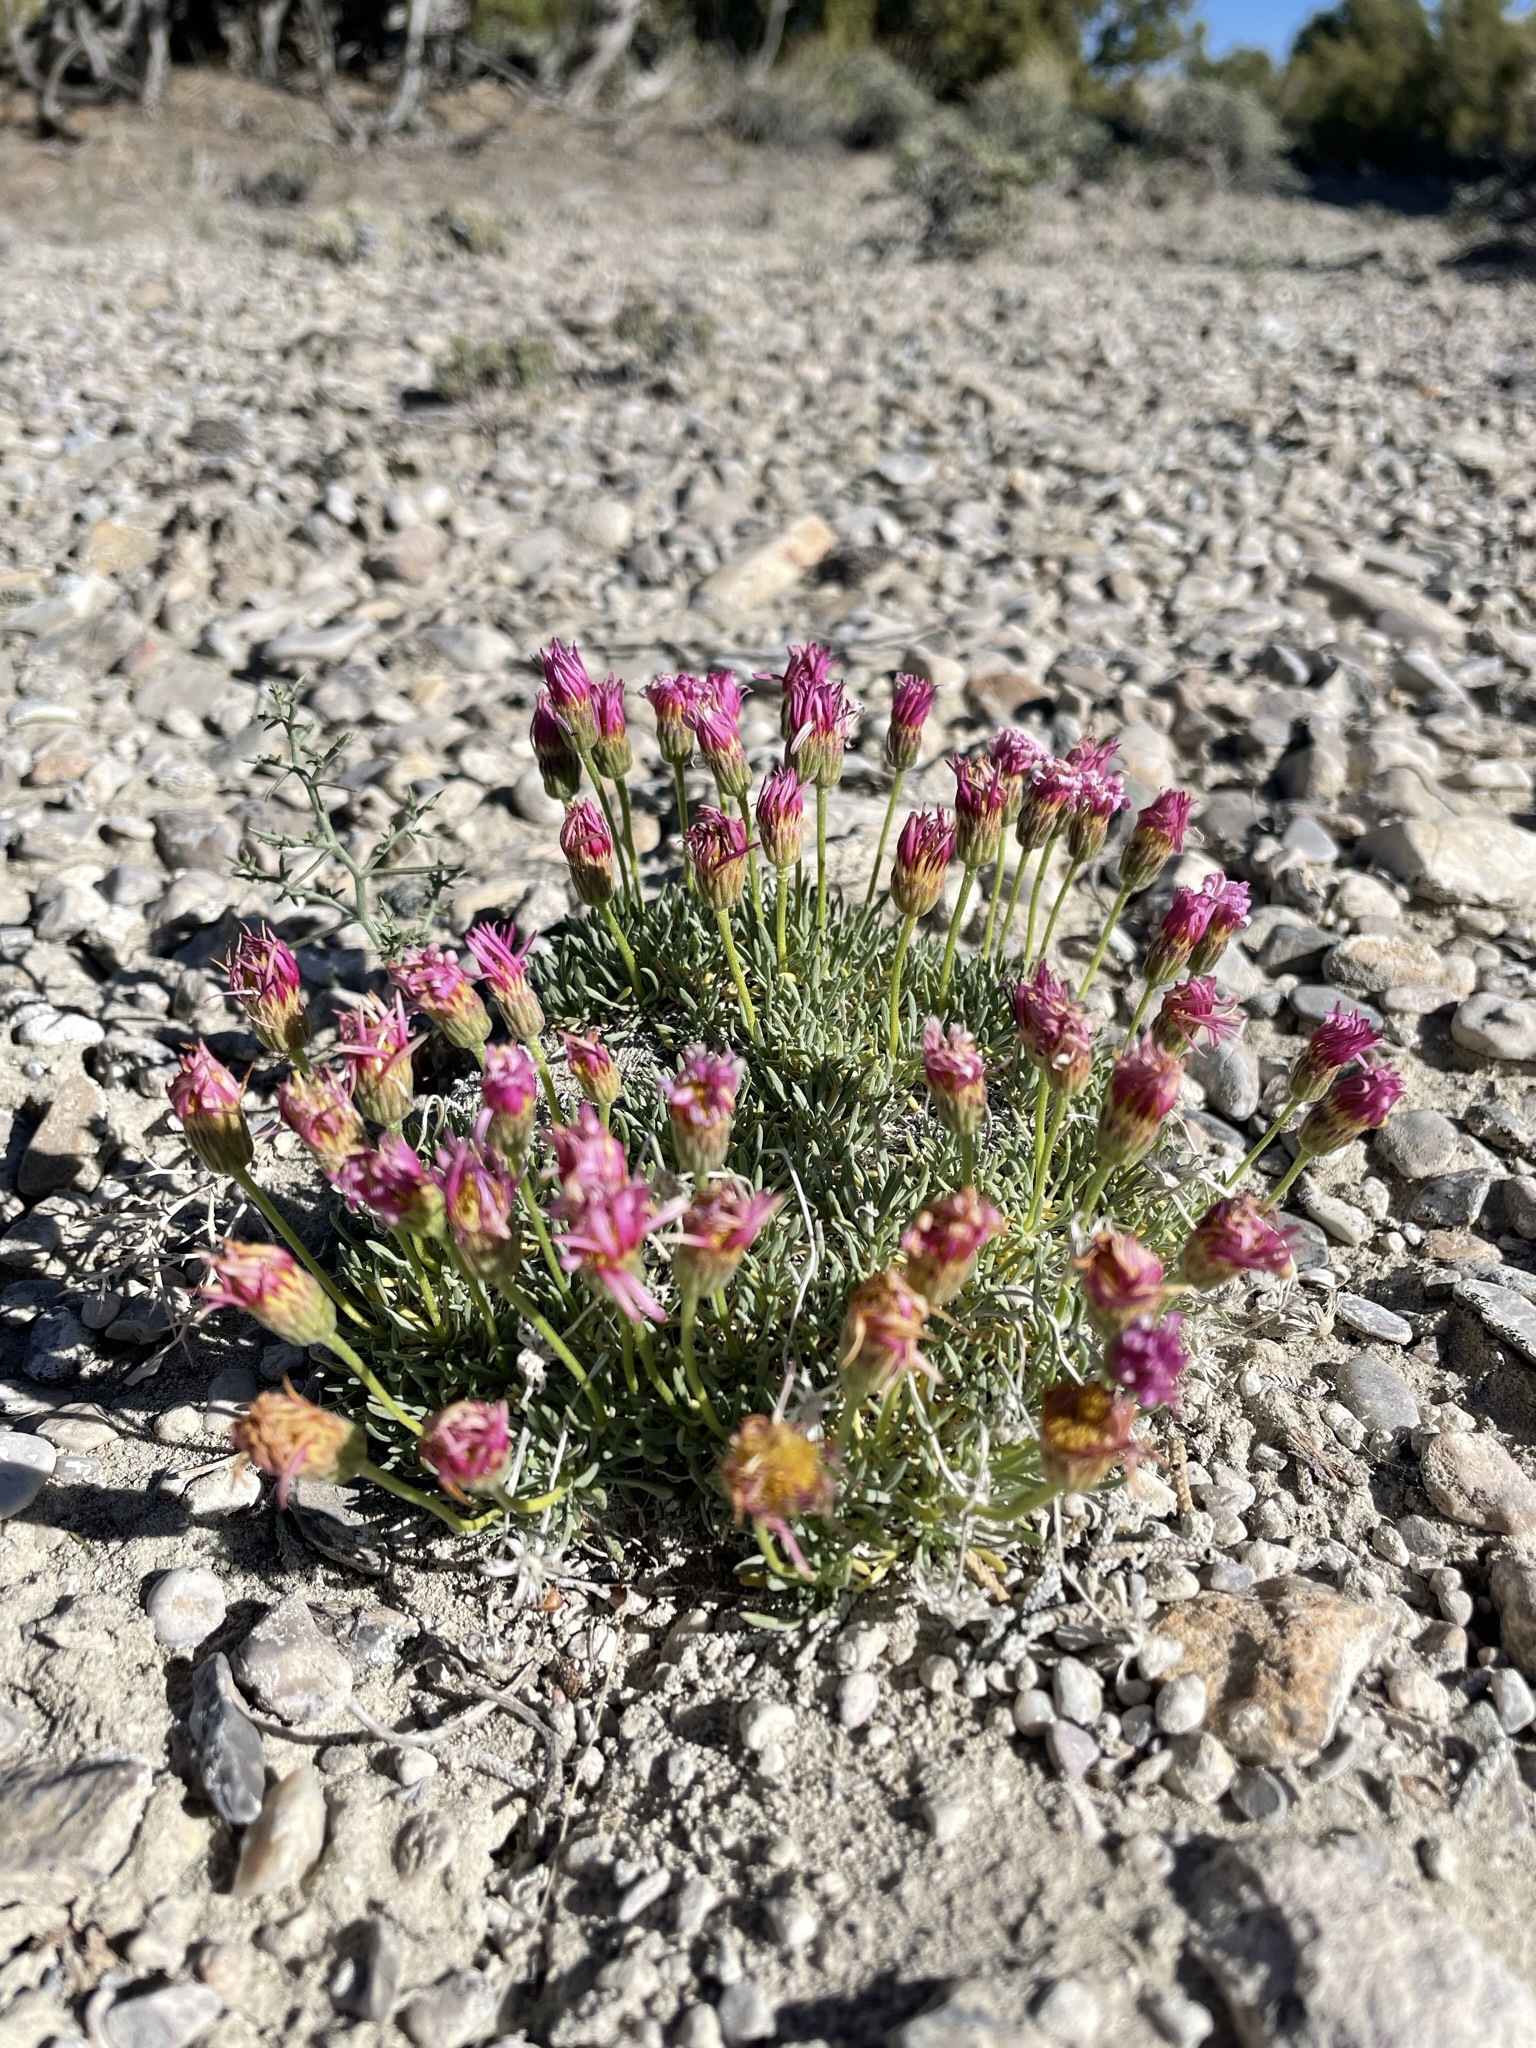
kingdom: Plantae
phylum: Tracheophyta
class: Magnoliopsida
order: Asterales
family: Asteraceae
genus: Erigeron
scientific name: Erigeron compactus
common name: Fern-leaf fleabane
